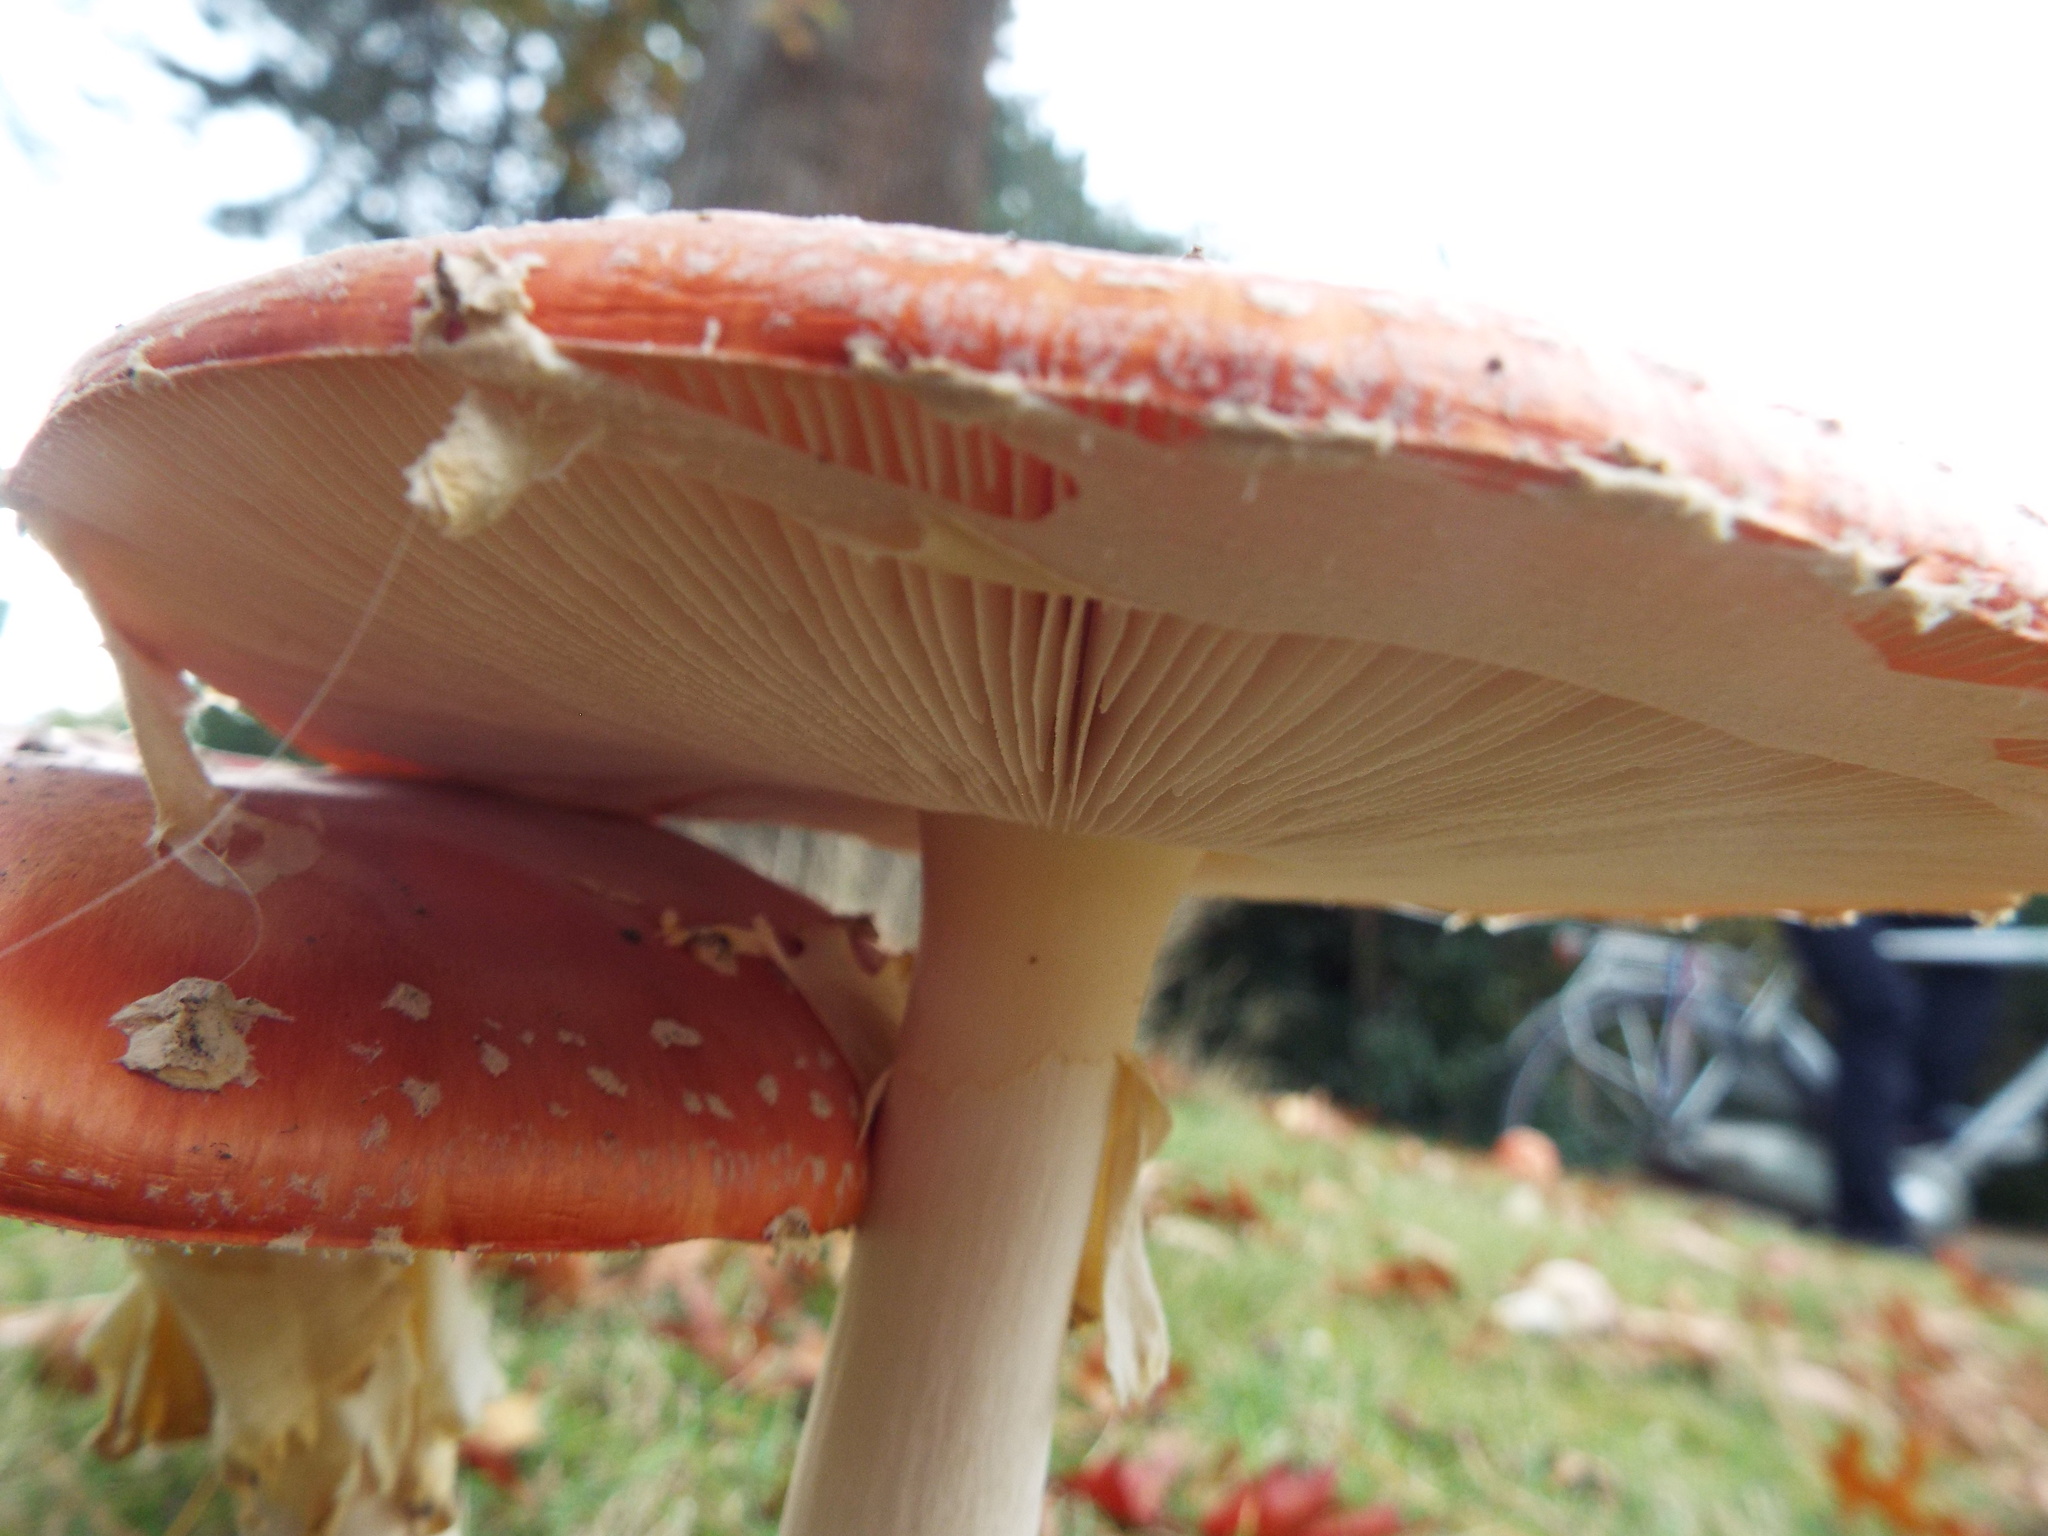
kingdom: Fungi
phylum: Basidiomycota
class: Agaricomycetes
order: Agaricales
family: Amanitaceae
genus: Amanita
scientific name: Amanita muscaria
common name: Fly agaric
